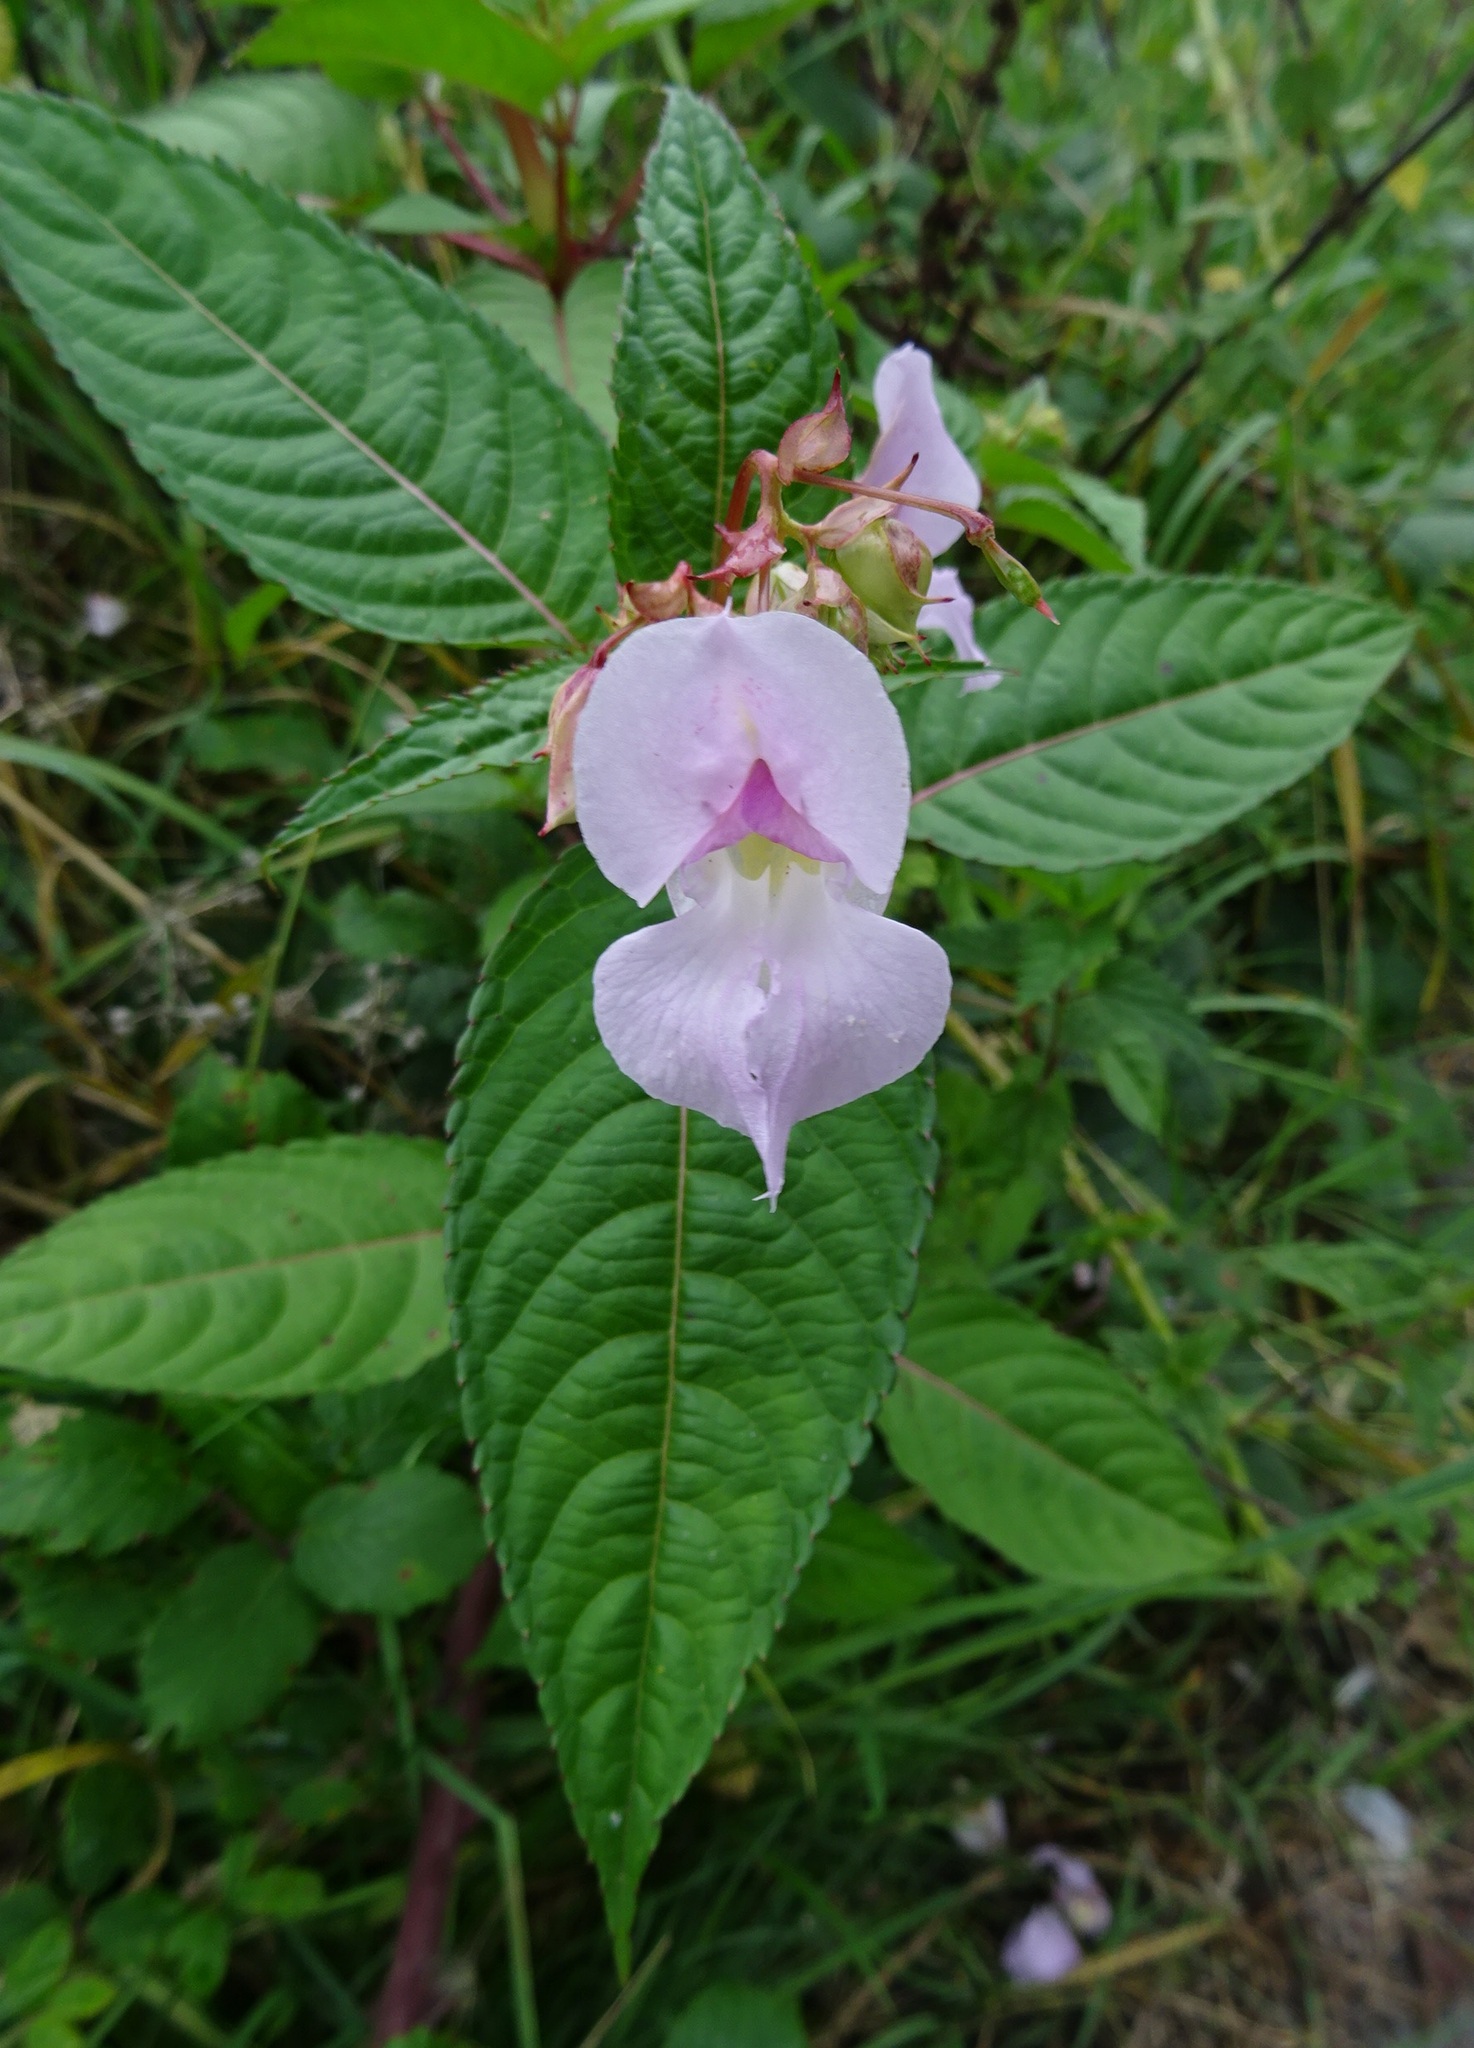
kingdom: Plantae
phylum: Tracheophyta
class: Magnoliopsida
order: Ericales
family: Balsaminaceae
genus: Impatiens
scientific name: Impatiens glandulifera
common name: Himalayan balsam
